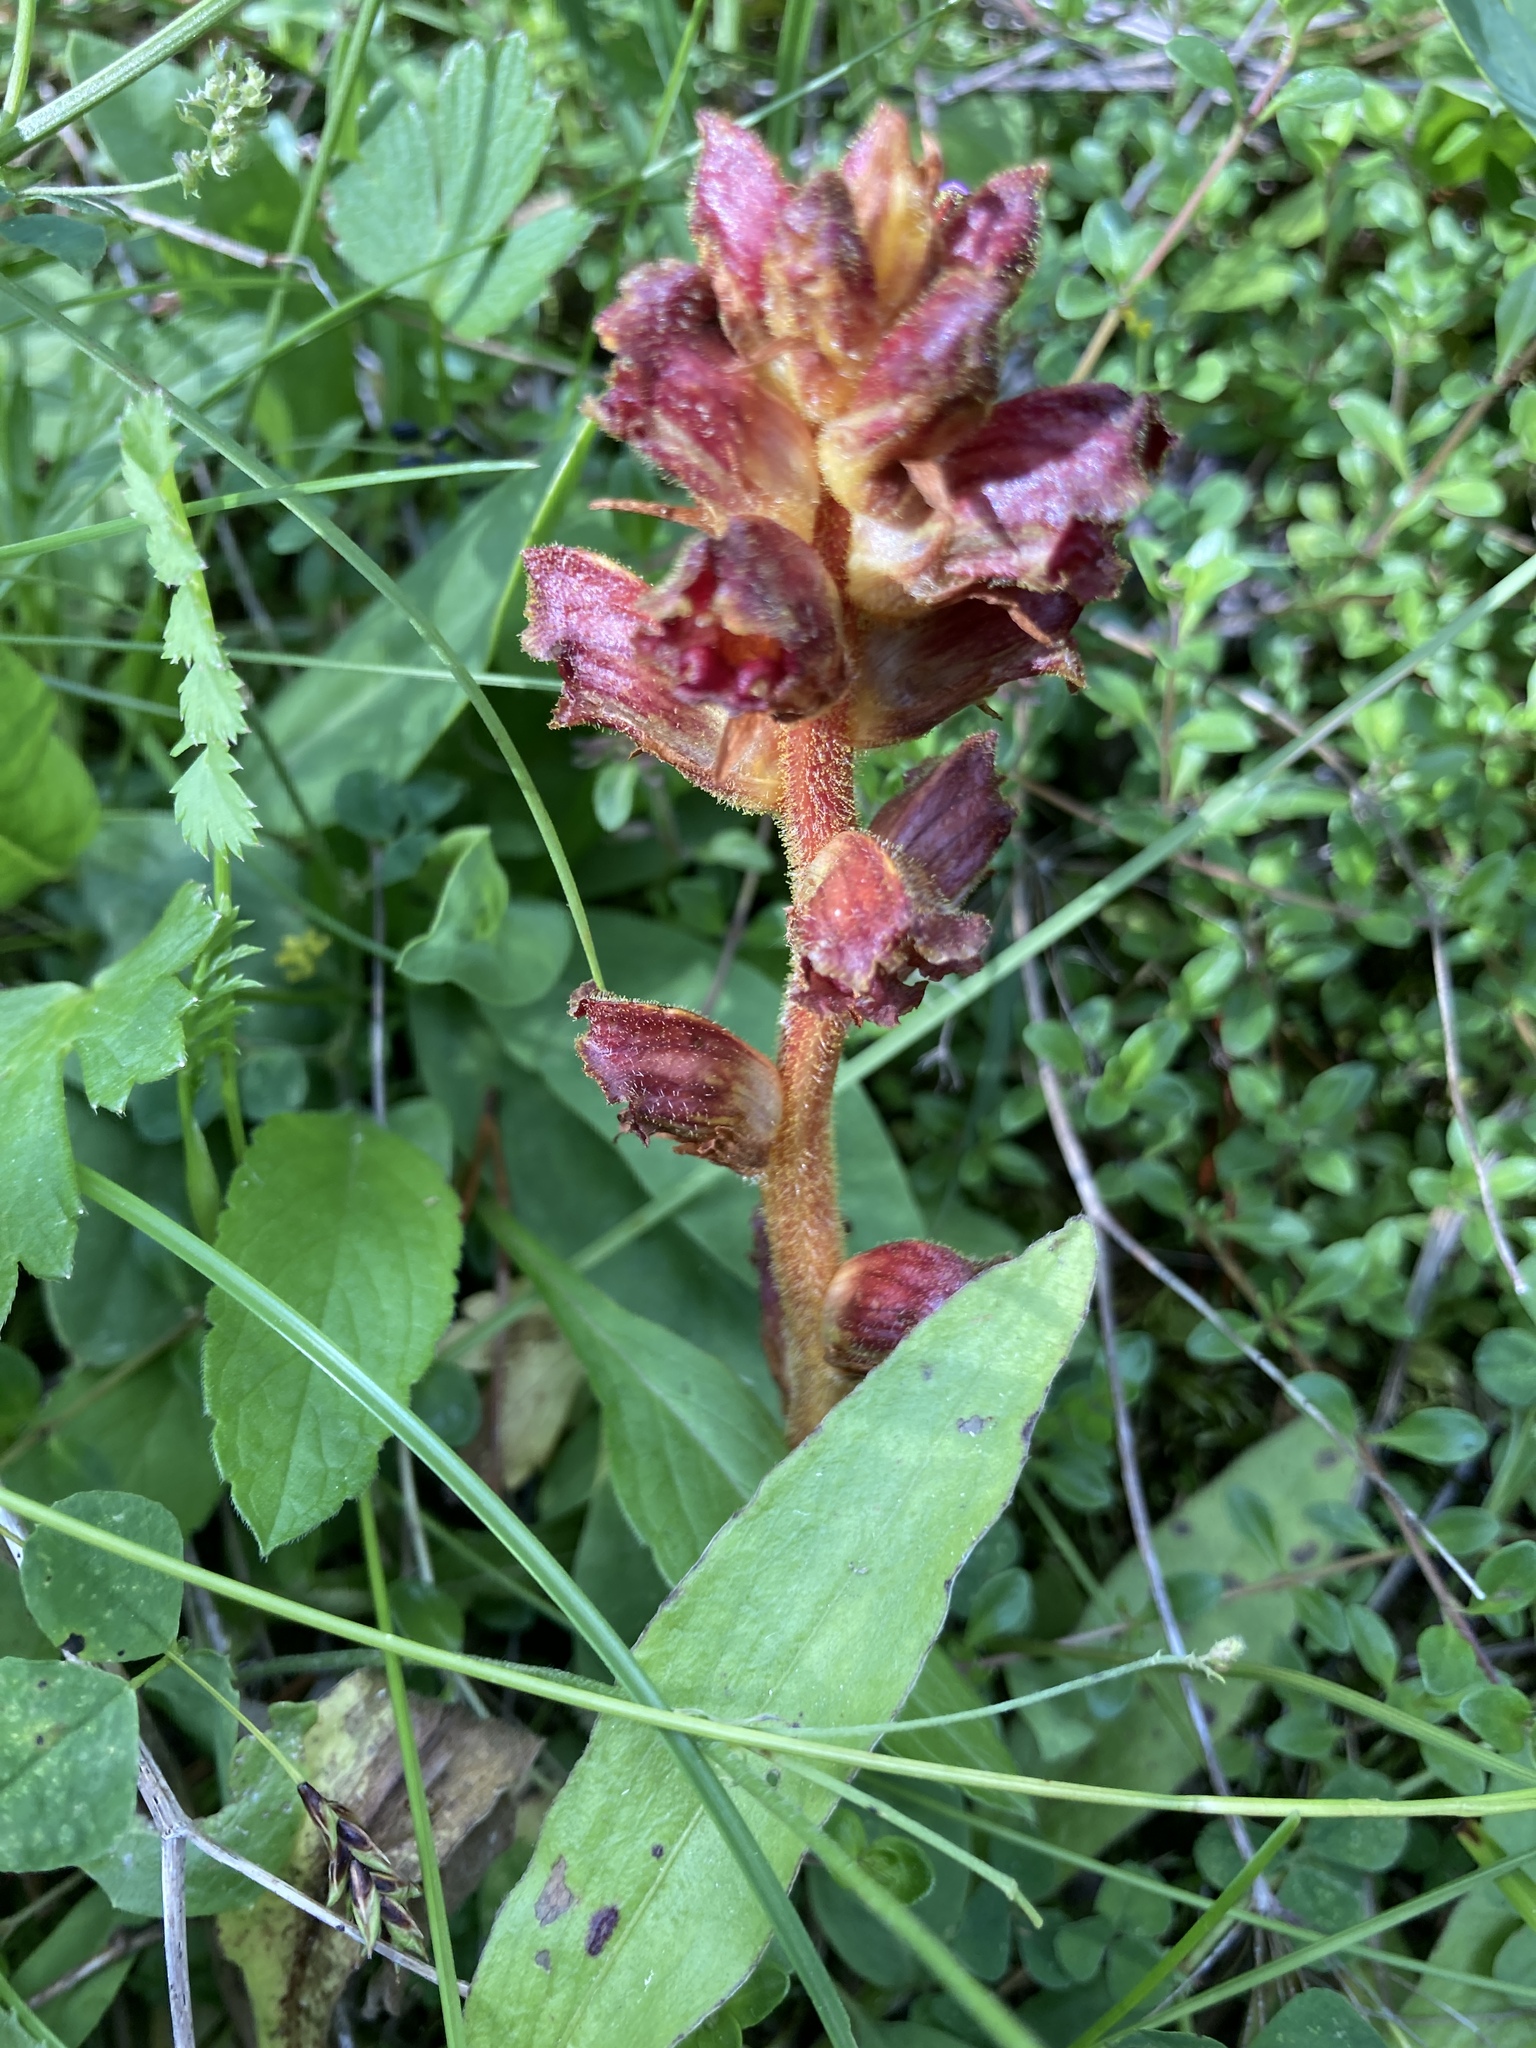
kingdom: Plantae
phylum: Tracheophyta
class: Magnoliopsida
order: Lamiales
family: Orobanchaceae
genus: Orobanche
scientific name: Orobanche gracilis
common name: Slender broomrape
